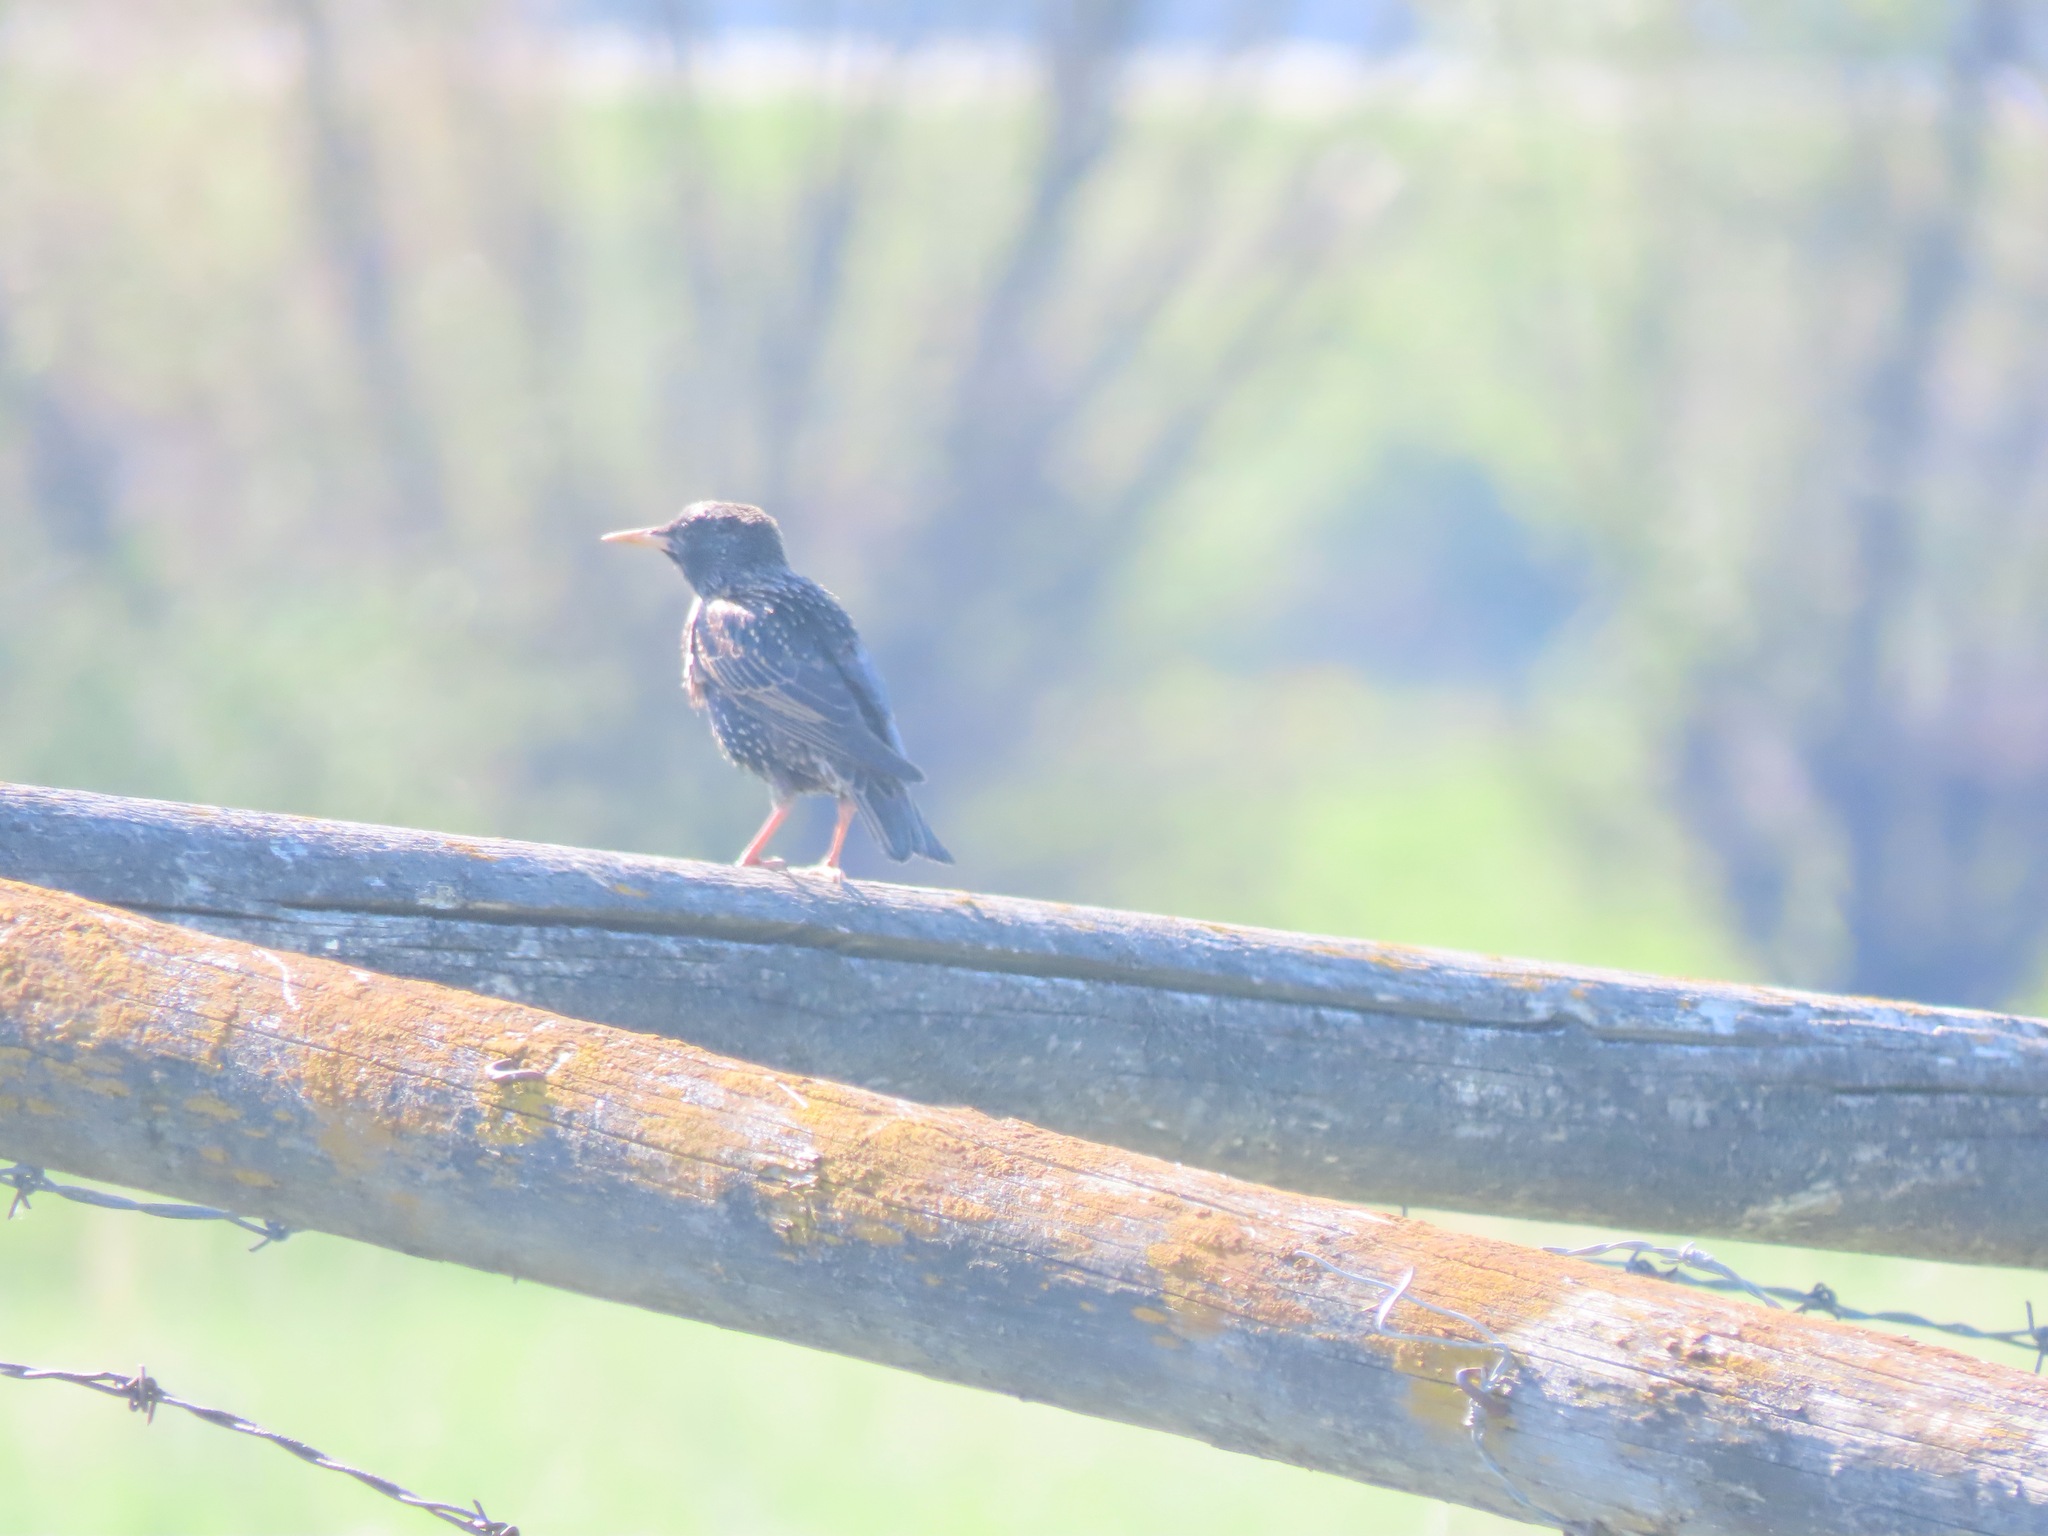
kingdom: Animalia
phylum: Chordata
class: Aves
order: Passeriformes
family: Sturnidae
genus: Sturnus
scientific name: Sturnus vulgaris
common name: Common starling
